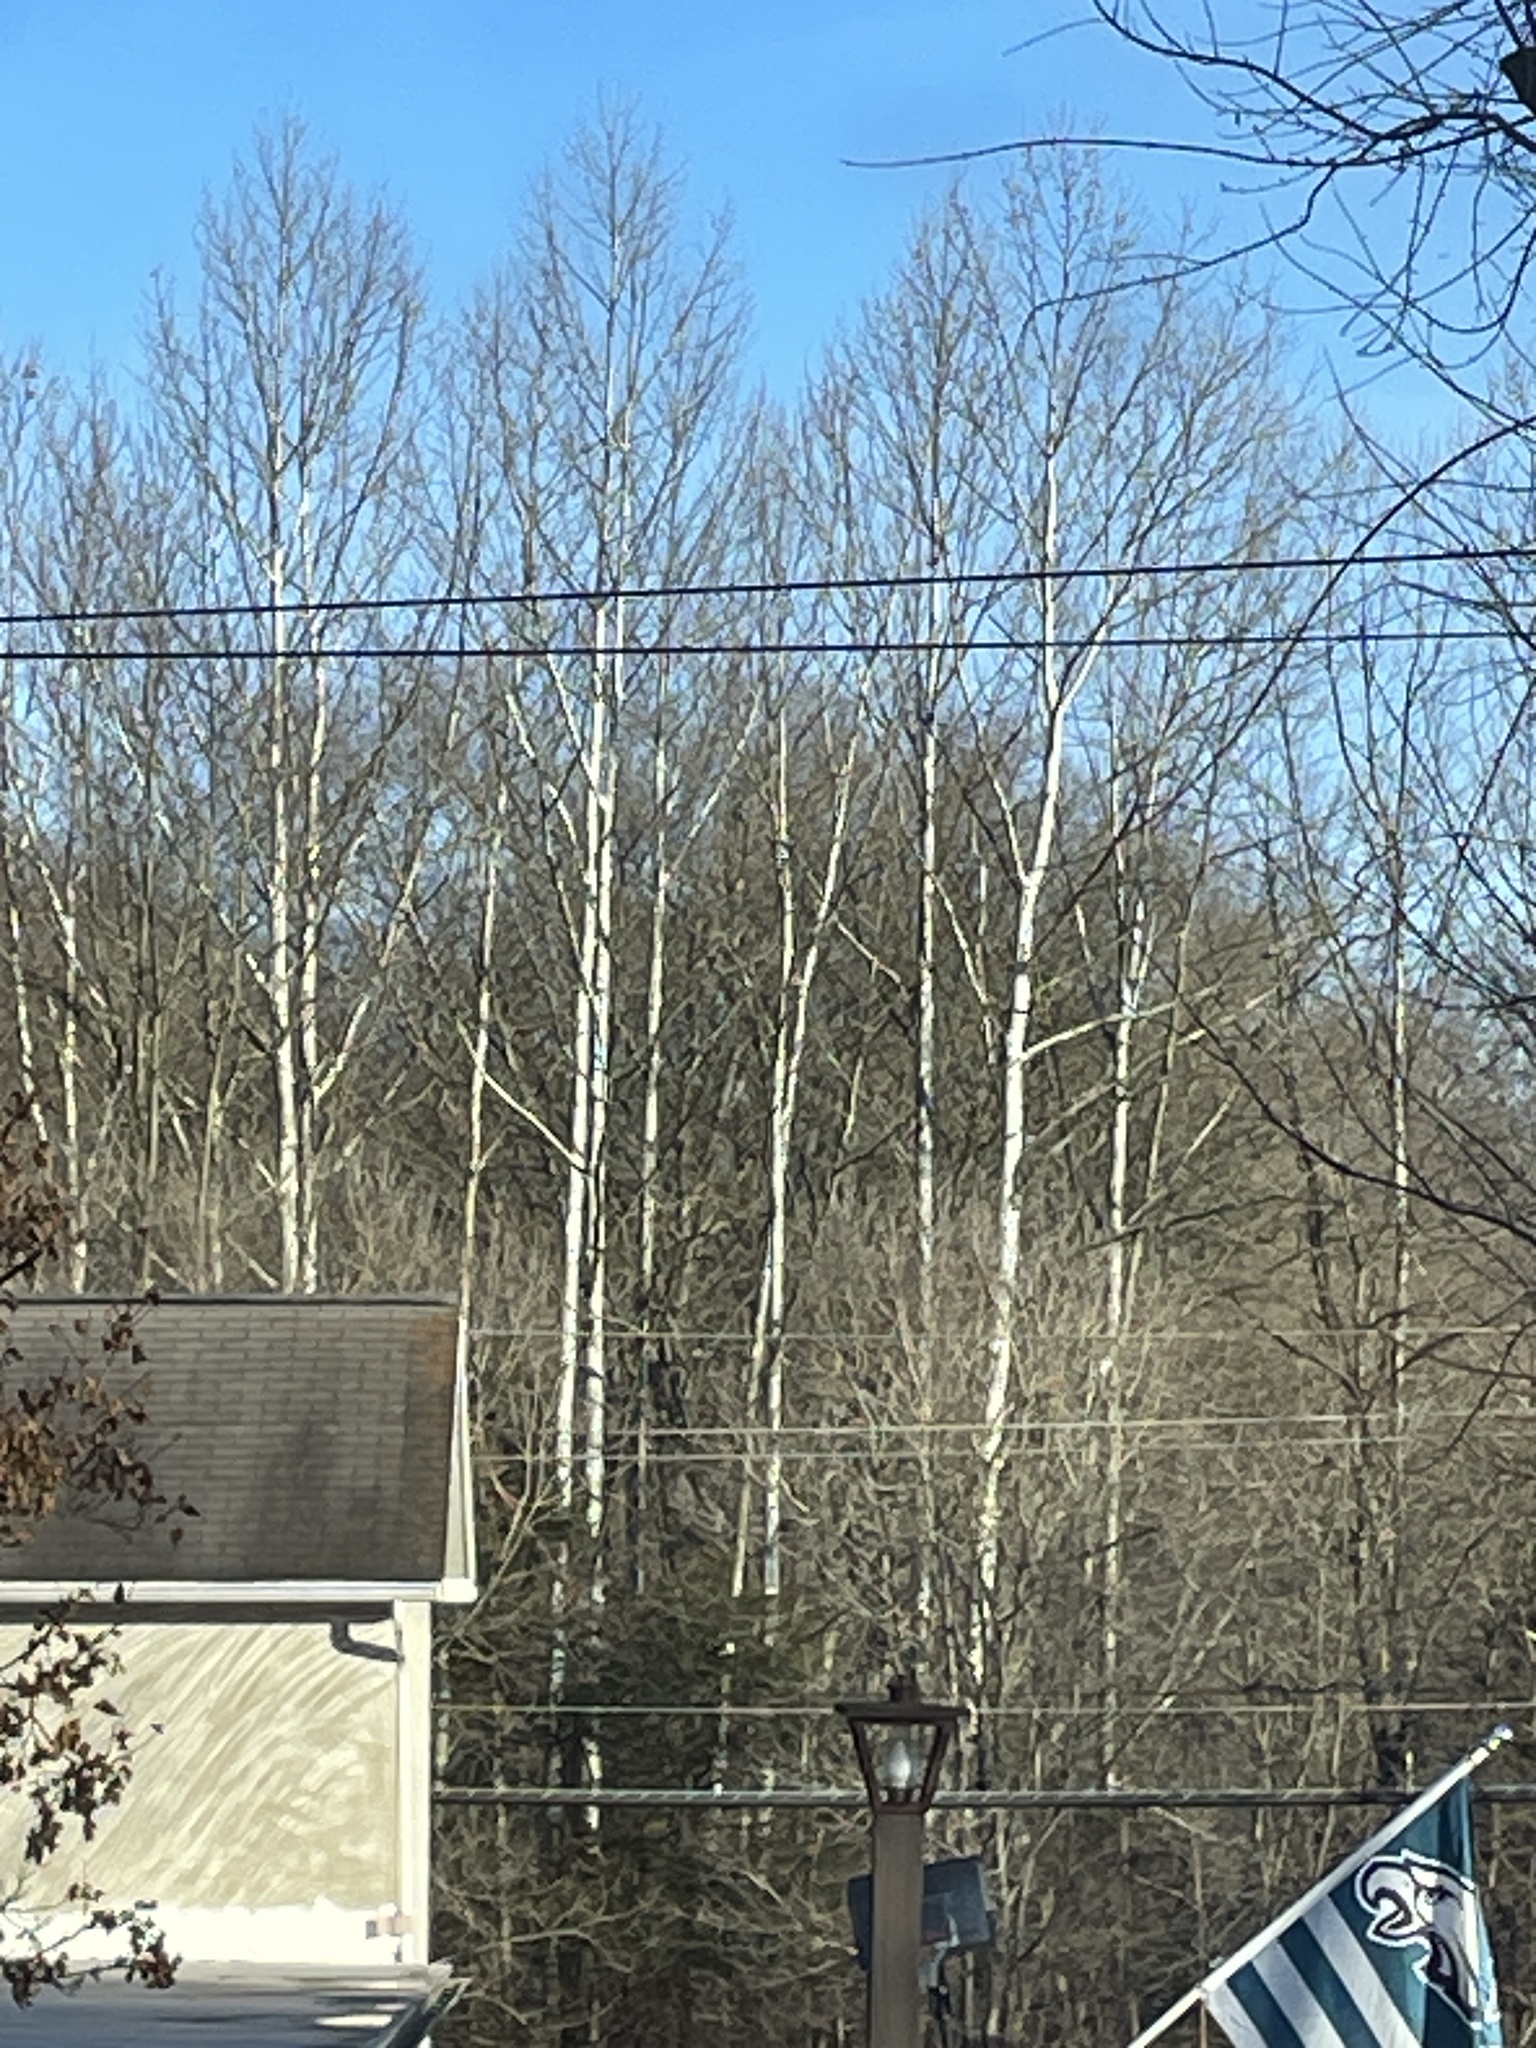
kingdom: Plantae
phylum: Tracheophyta
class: Magnoliopsida
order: Proteales
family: Platanaceae
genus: Platanus
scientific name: Platanus occidentalis
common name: American sycamore
